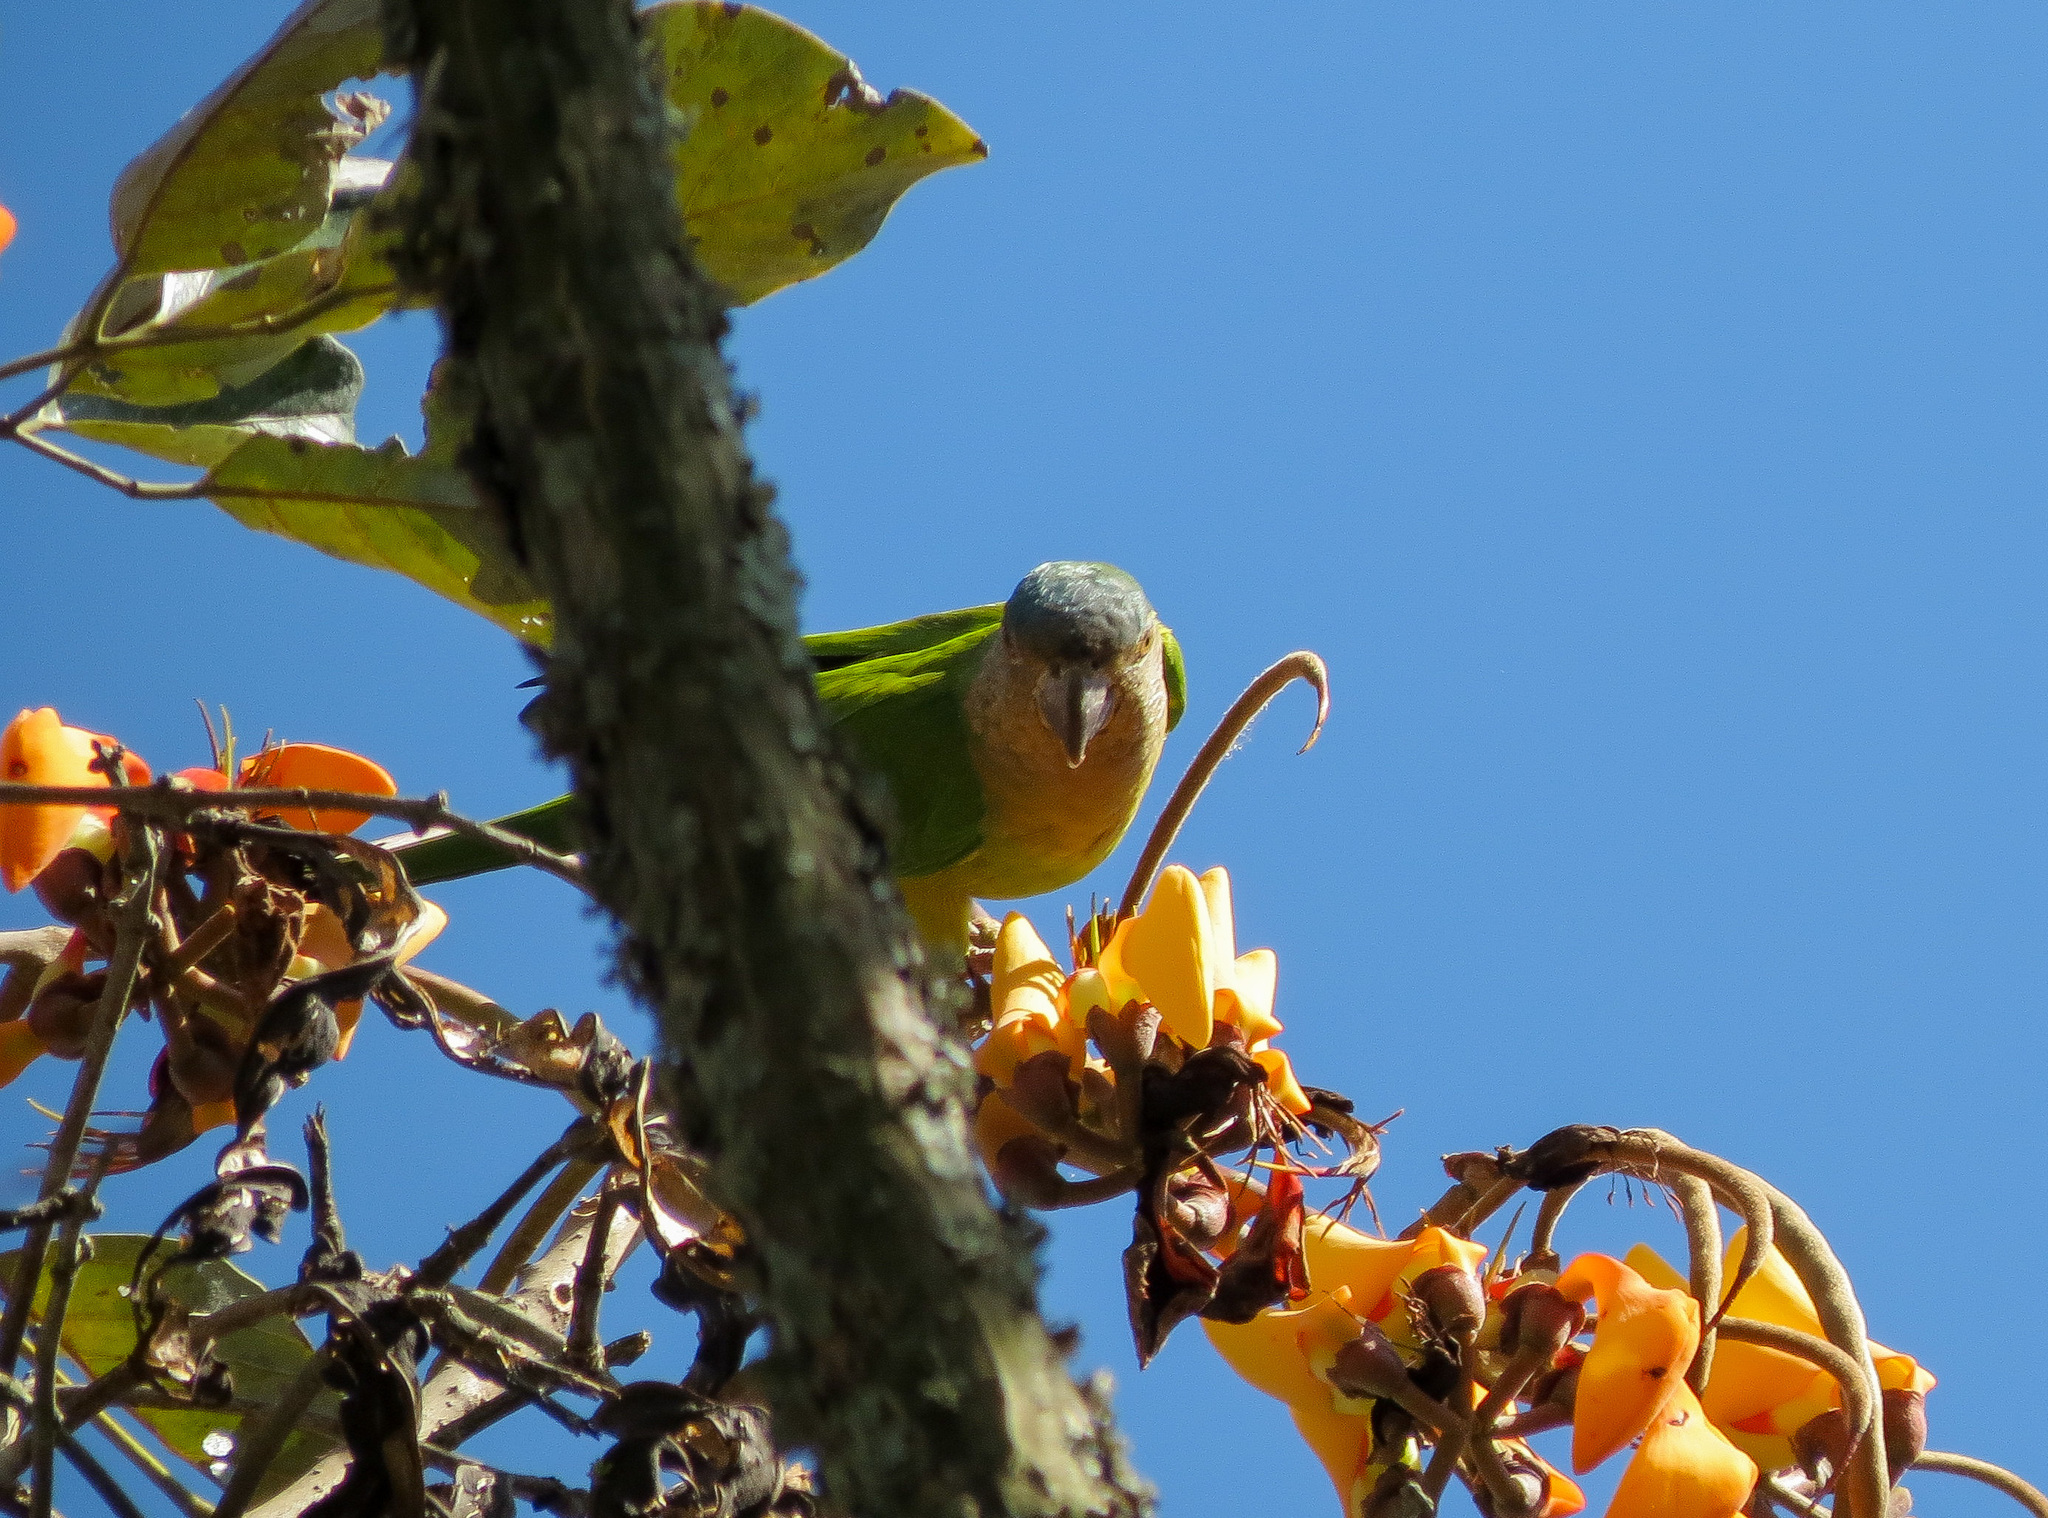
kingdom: Animalia
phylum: Chordata
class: Aves
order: Psittaciformes
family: Psittacidae
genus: Aratinga
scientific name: Aratinga pertinax
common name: Brown-throated parakeet
